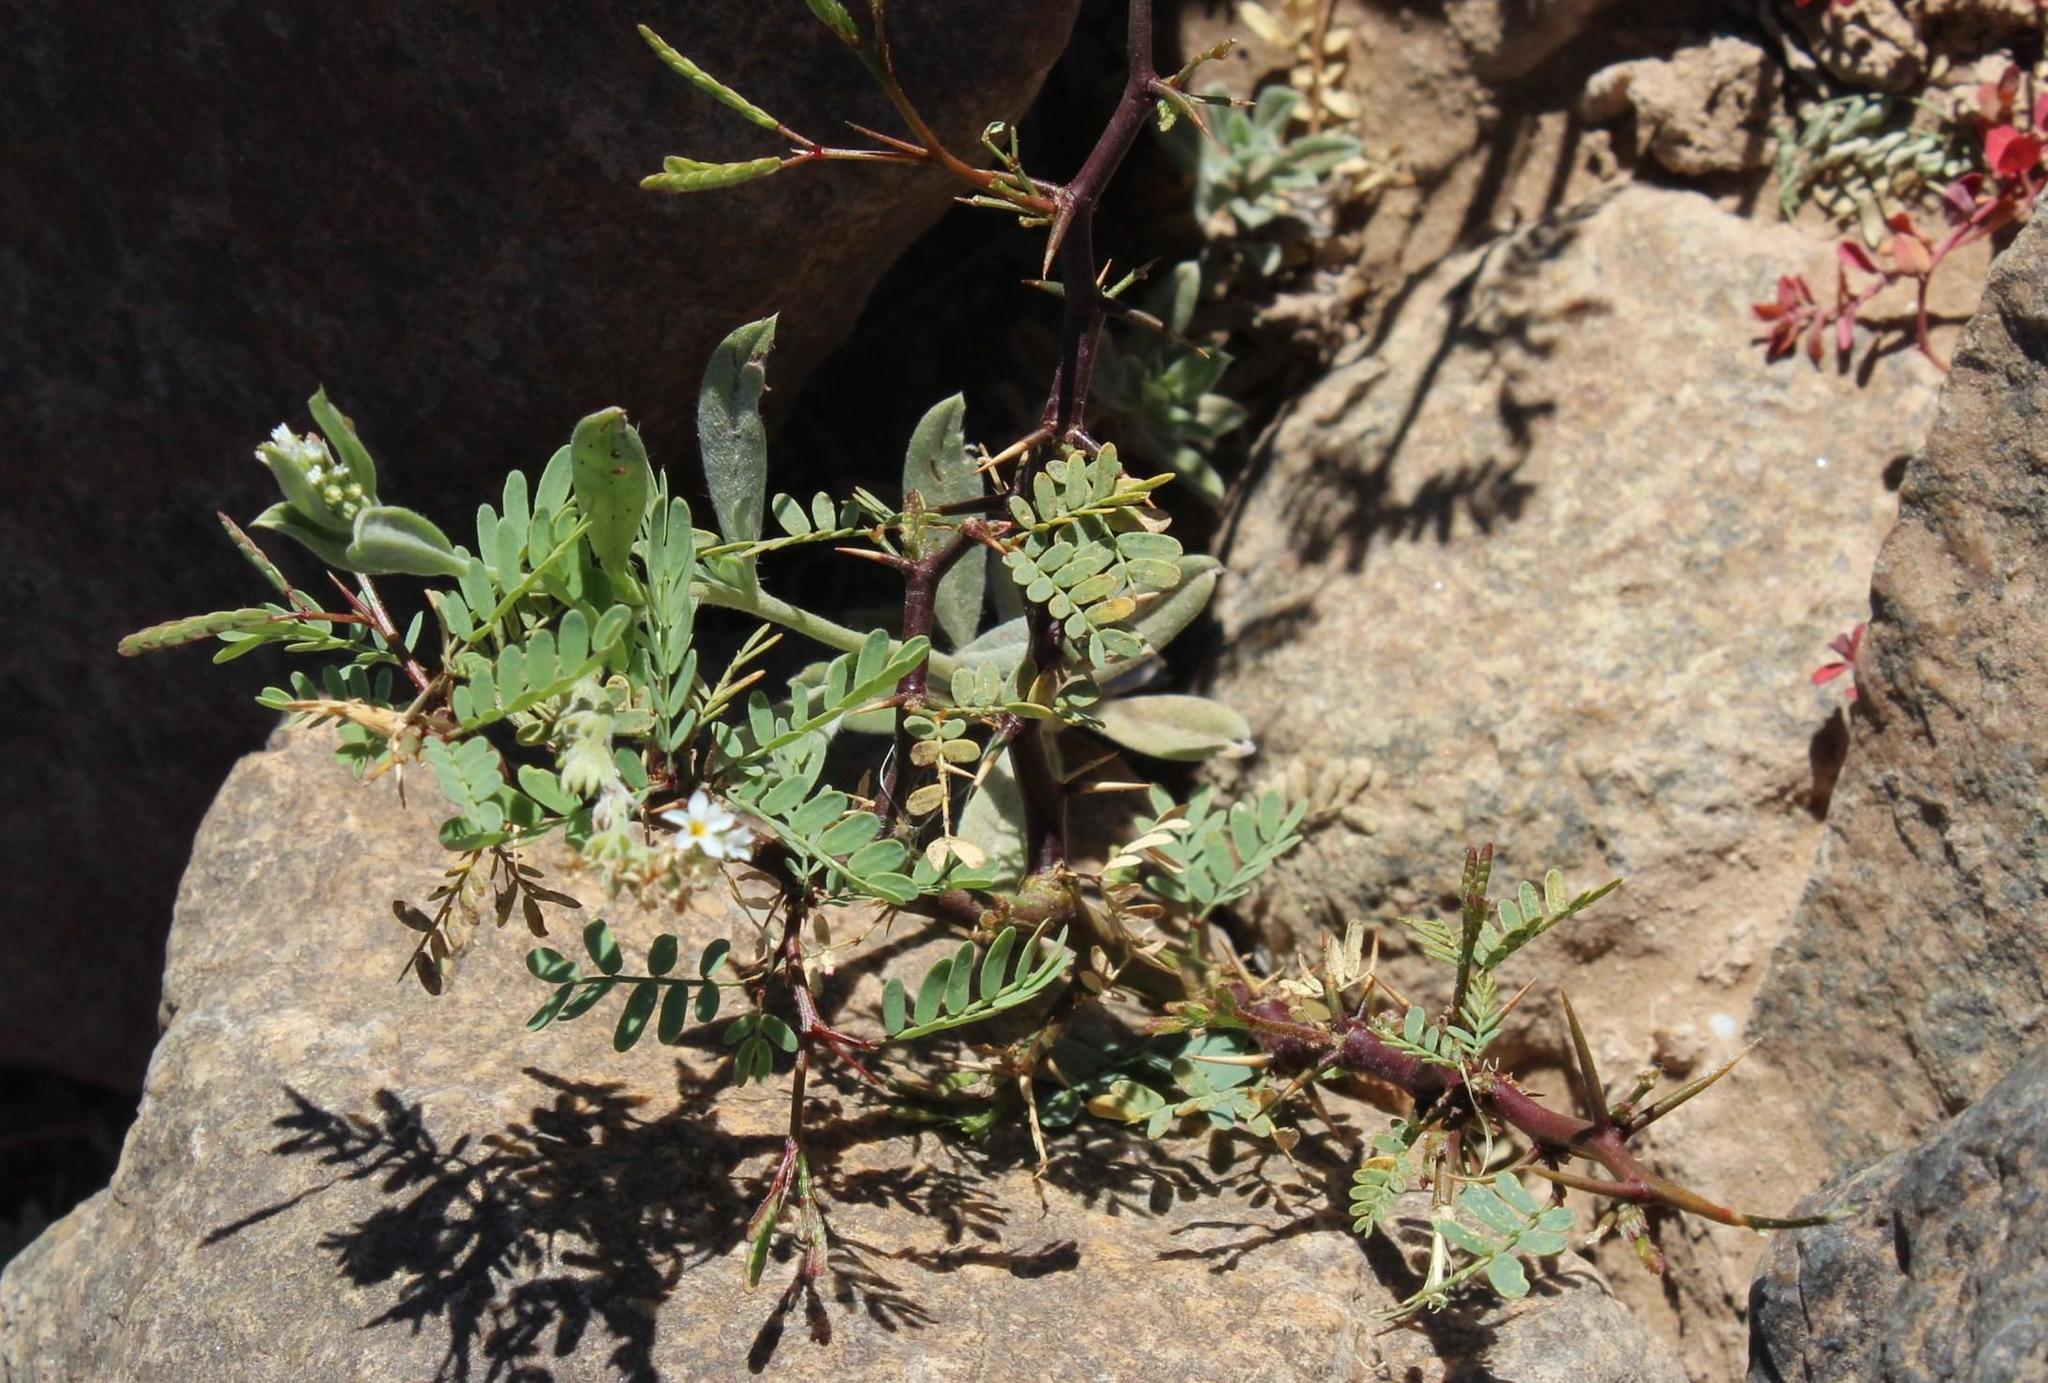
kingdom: Plantae
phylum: Tracheophyta
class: Magnoliopsida
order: Fabales
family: Fabaceae
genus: Prosopis
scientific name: Prosopis glandulosa
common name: Honey mesquite
